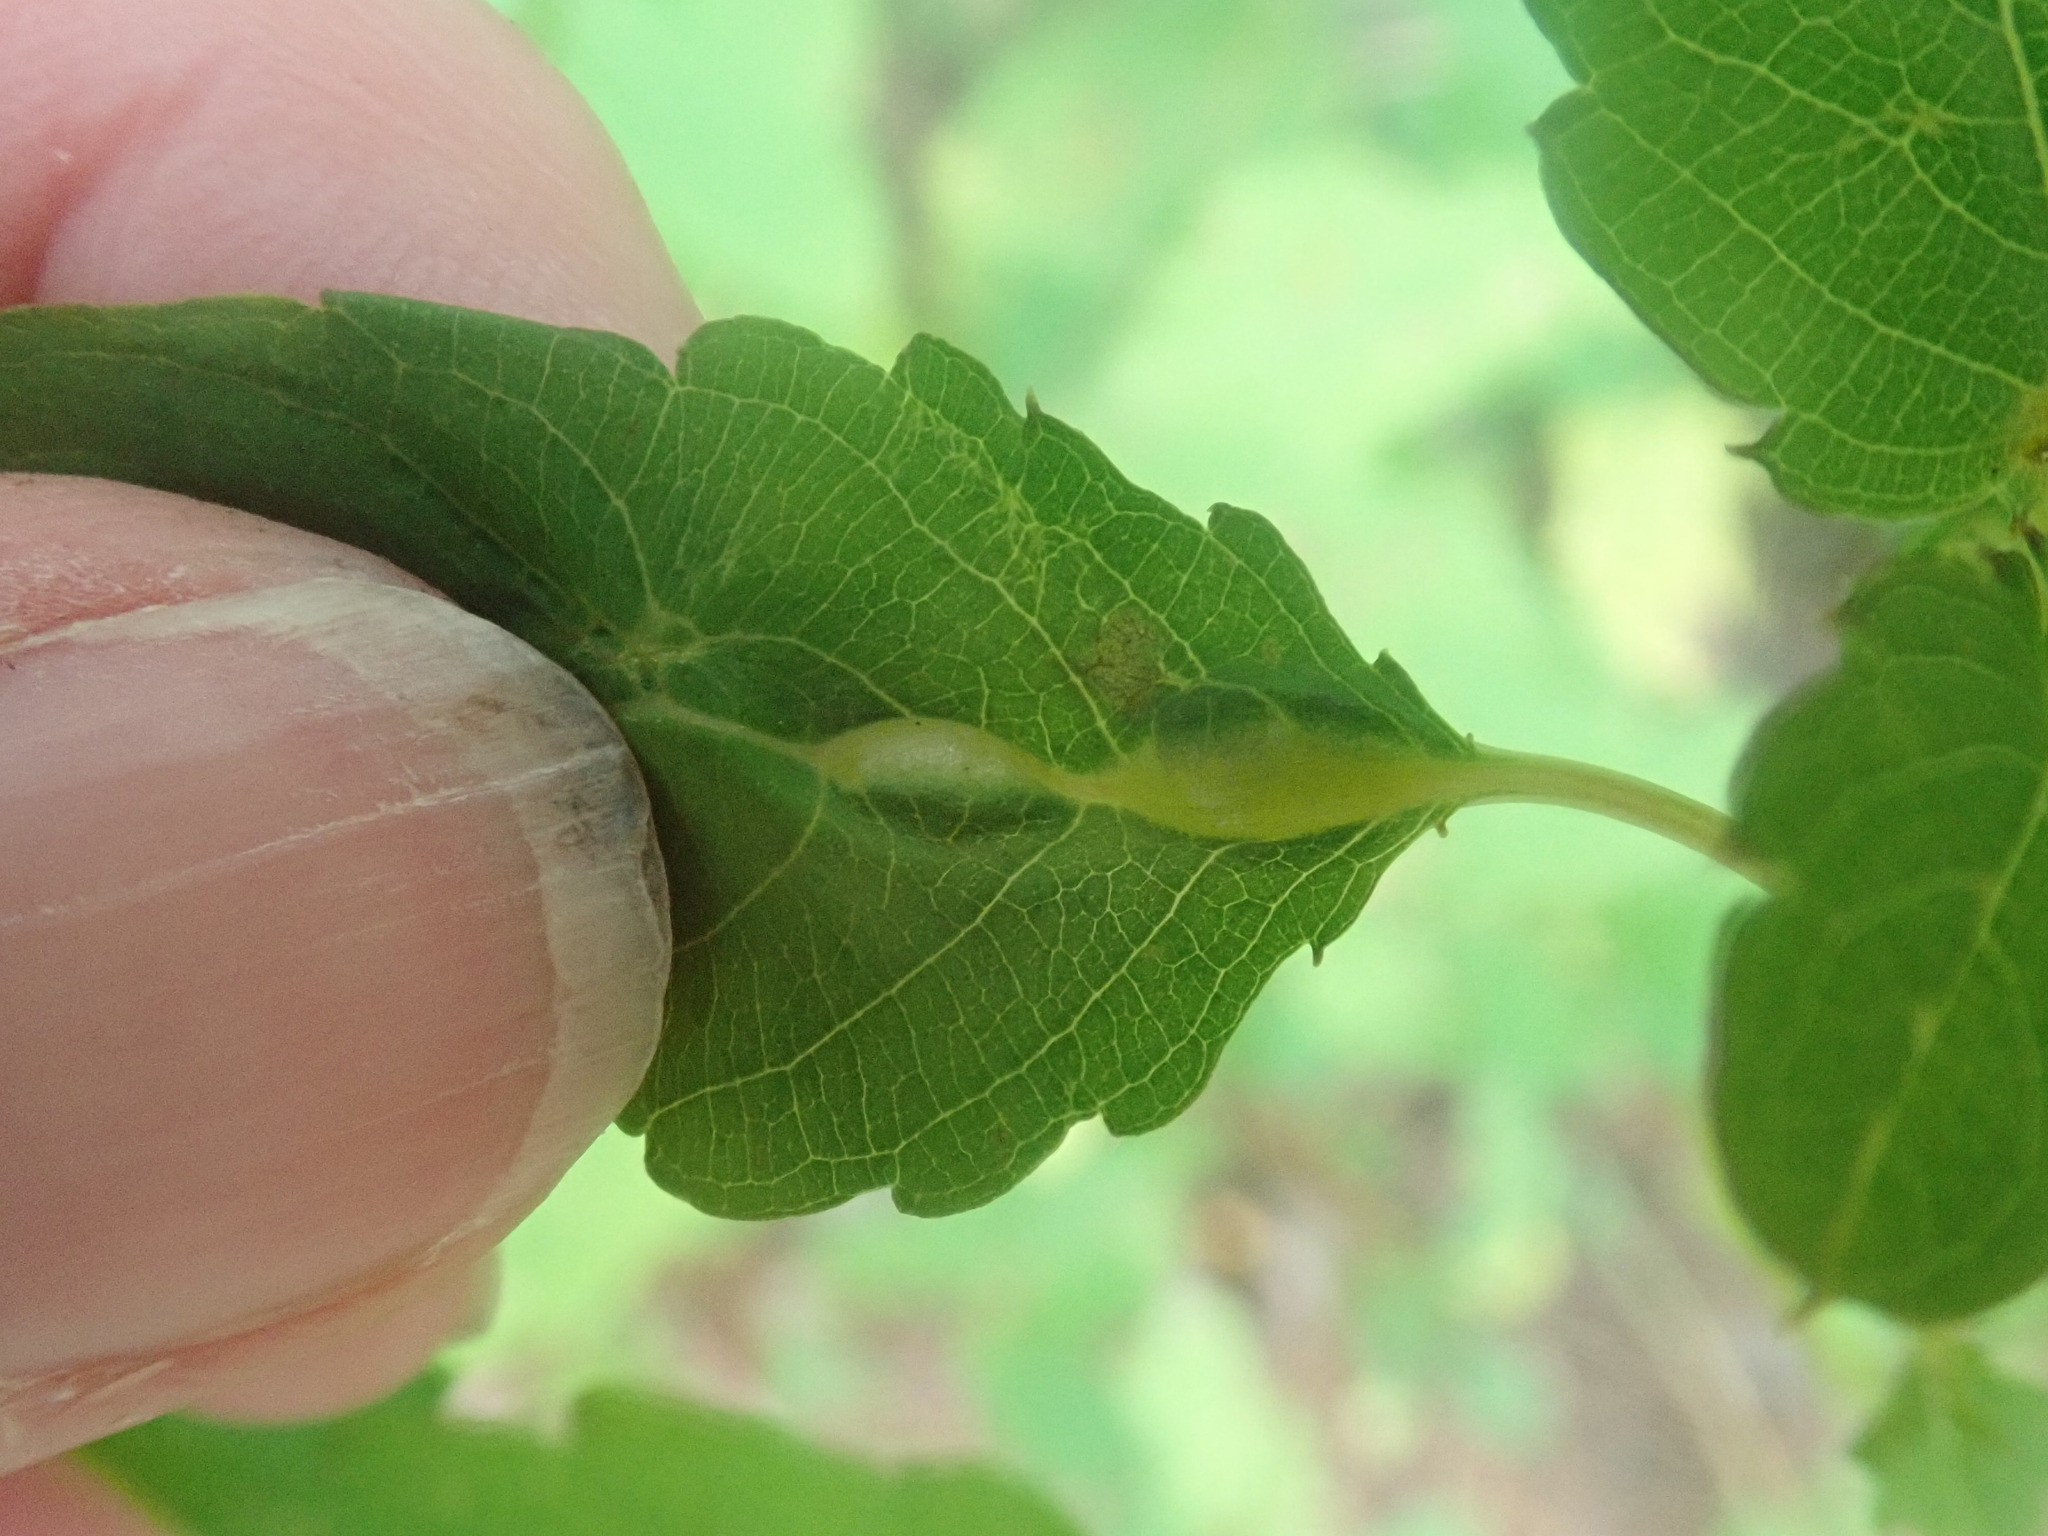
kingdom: Animalia
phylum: Arthropoda
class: Insecta
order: Diptera
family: Cecidomyiidae
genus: Neolasioptera
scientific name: Neolasioptera impatientifolia
